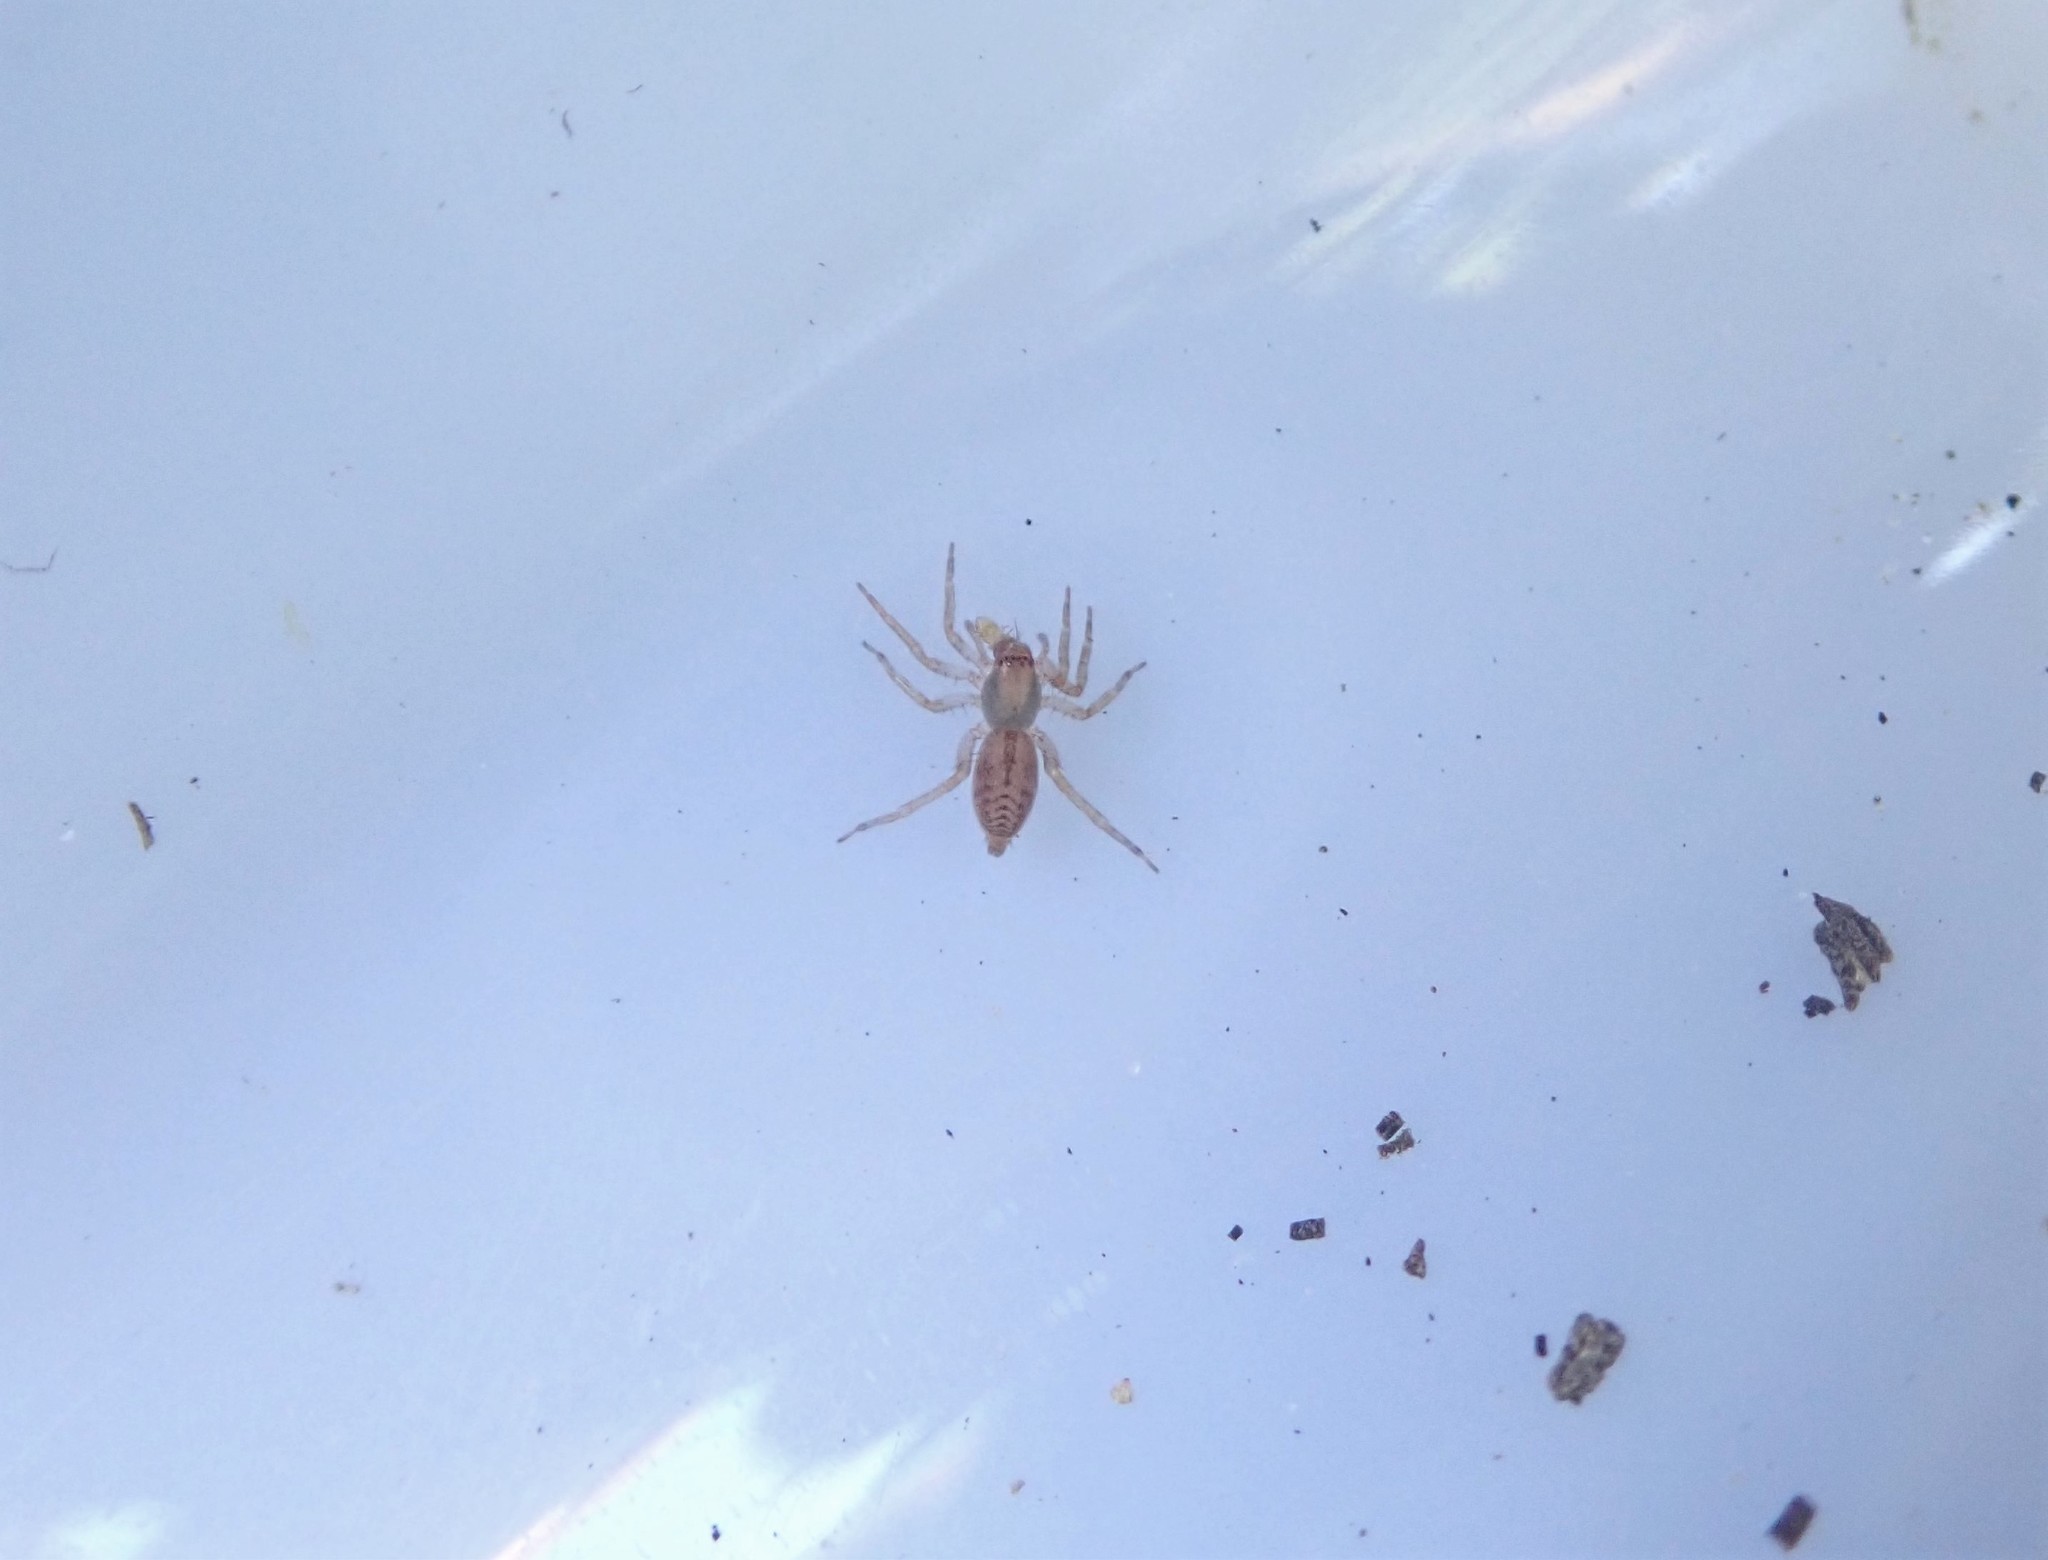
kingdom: Animalia
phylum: Arthropoda
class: Arachnida
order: Araneae
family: Clubionidae
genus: Clubiona
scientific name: Clubiona comta
